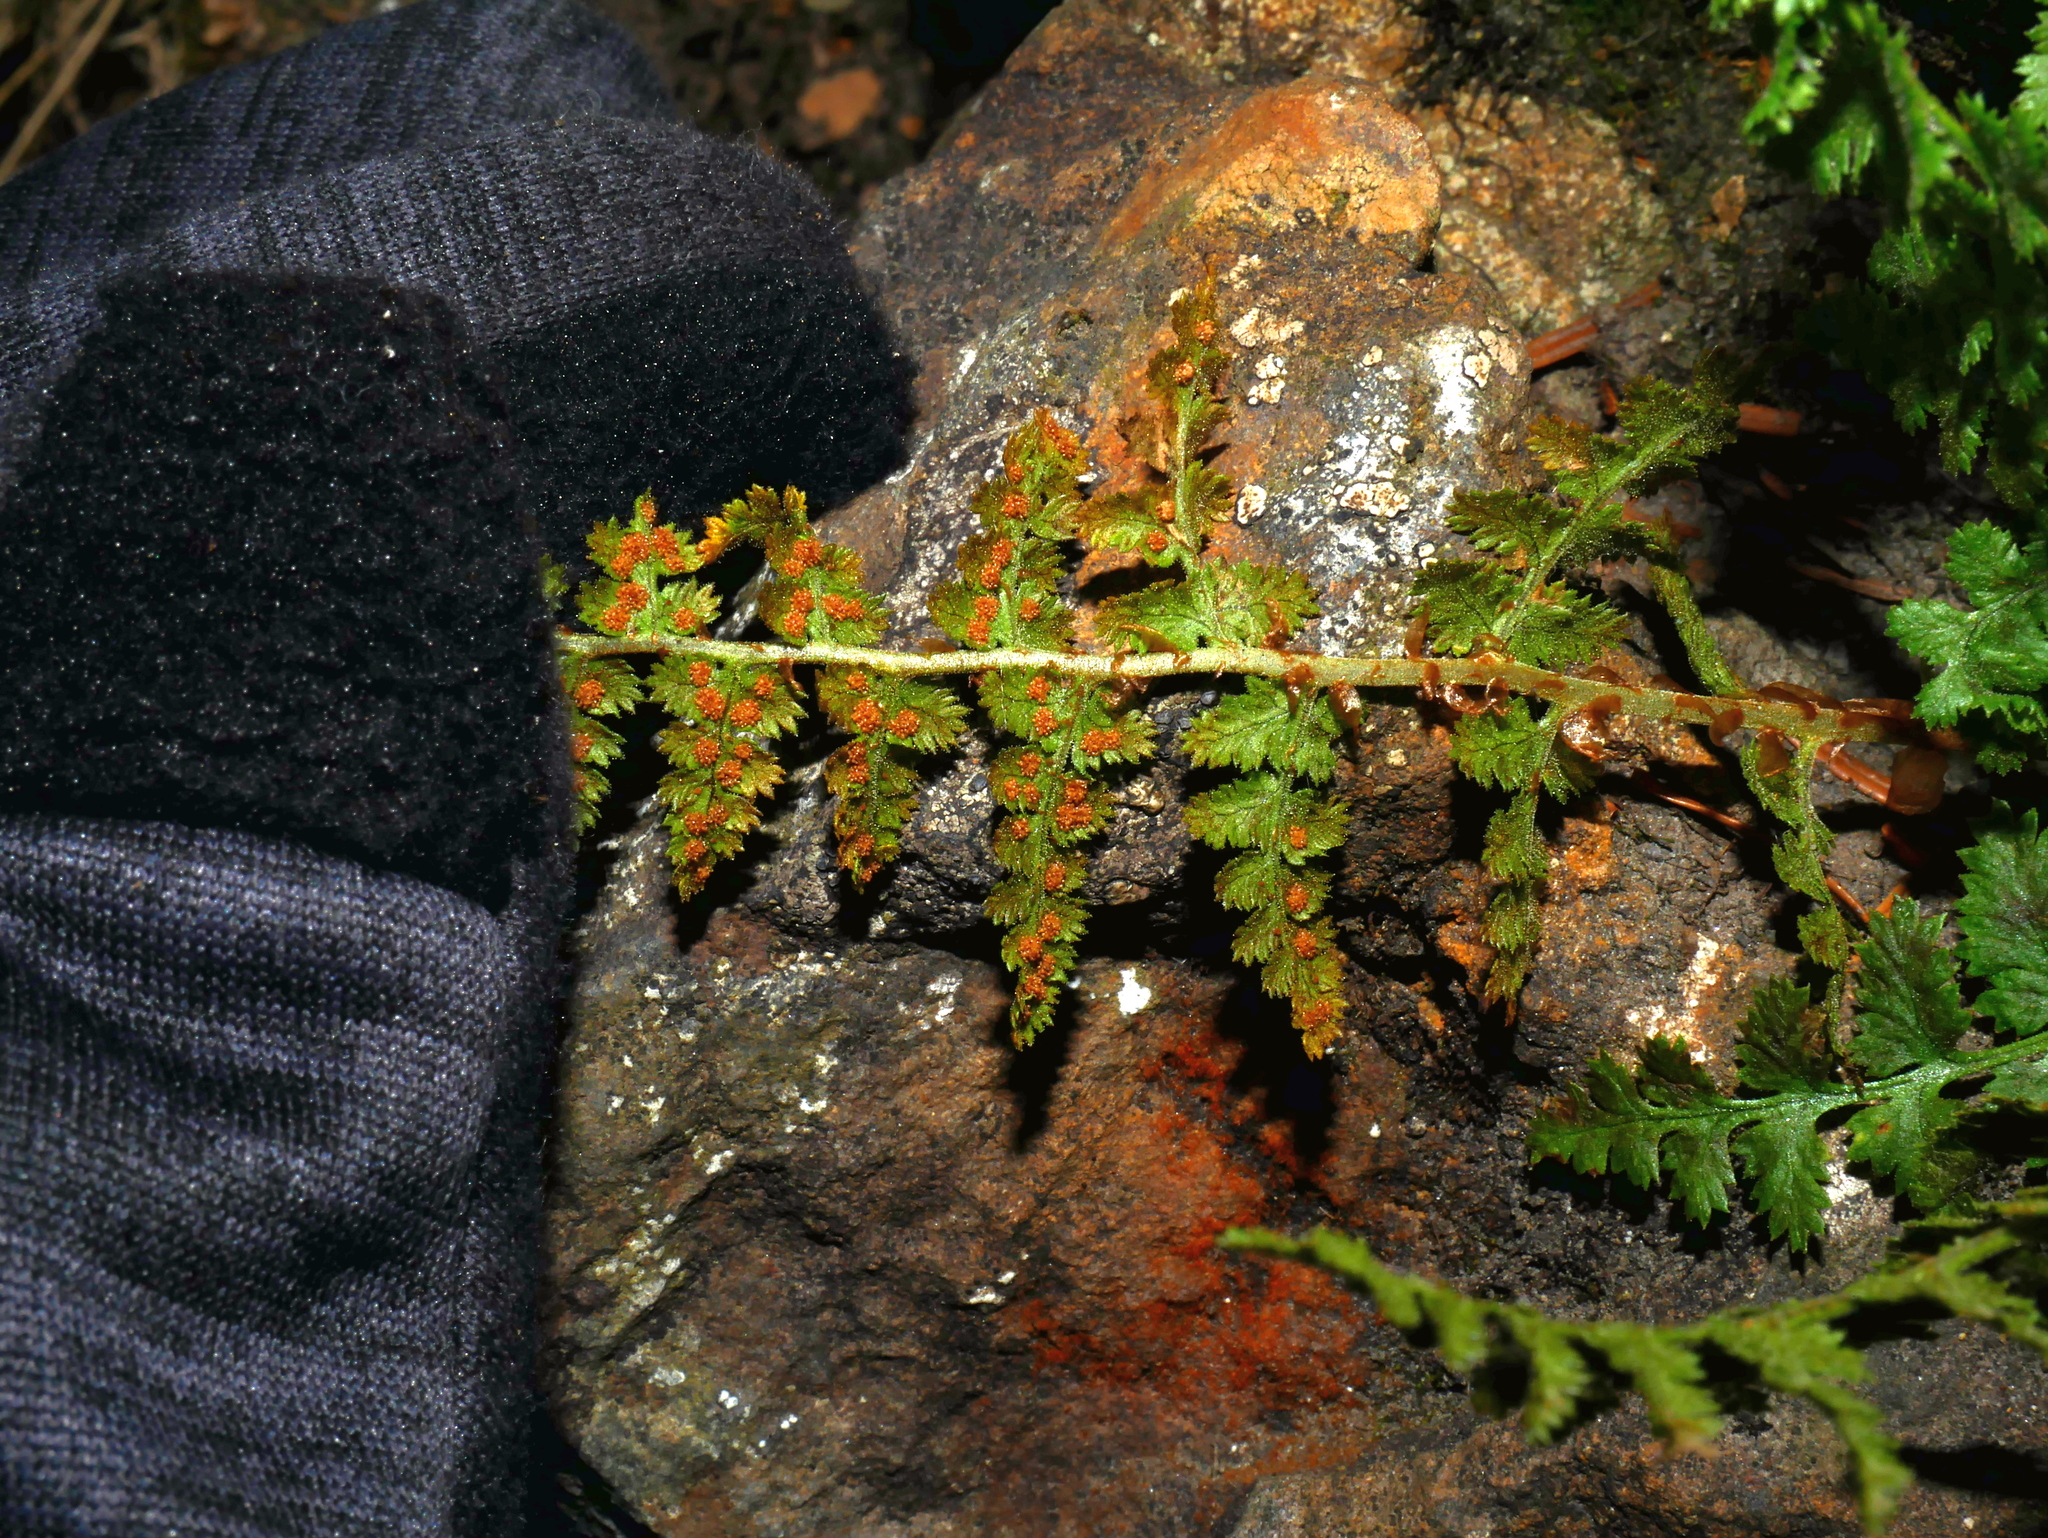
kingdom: Plantae
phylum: Tracheophyta
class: Polypodiopsida
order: Polypodiales
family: Dryopteridaceae
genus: Dryopteris
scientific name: Dryopteris alpestris
